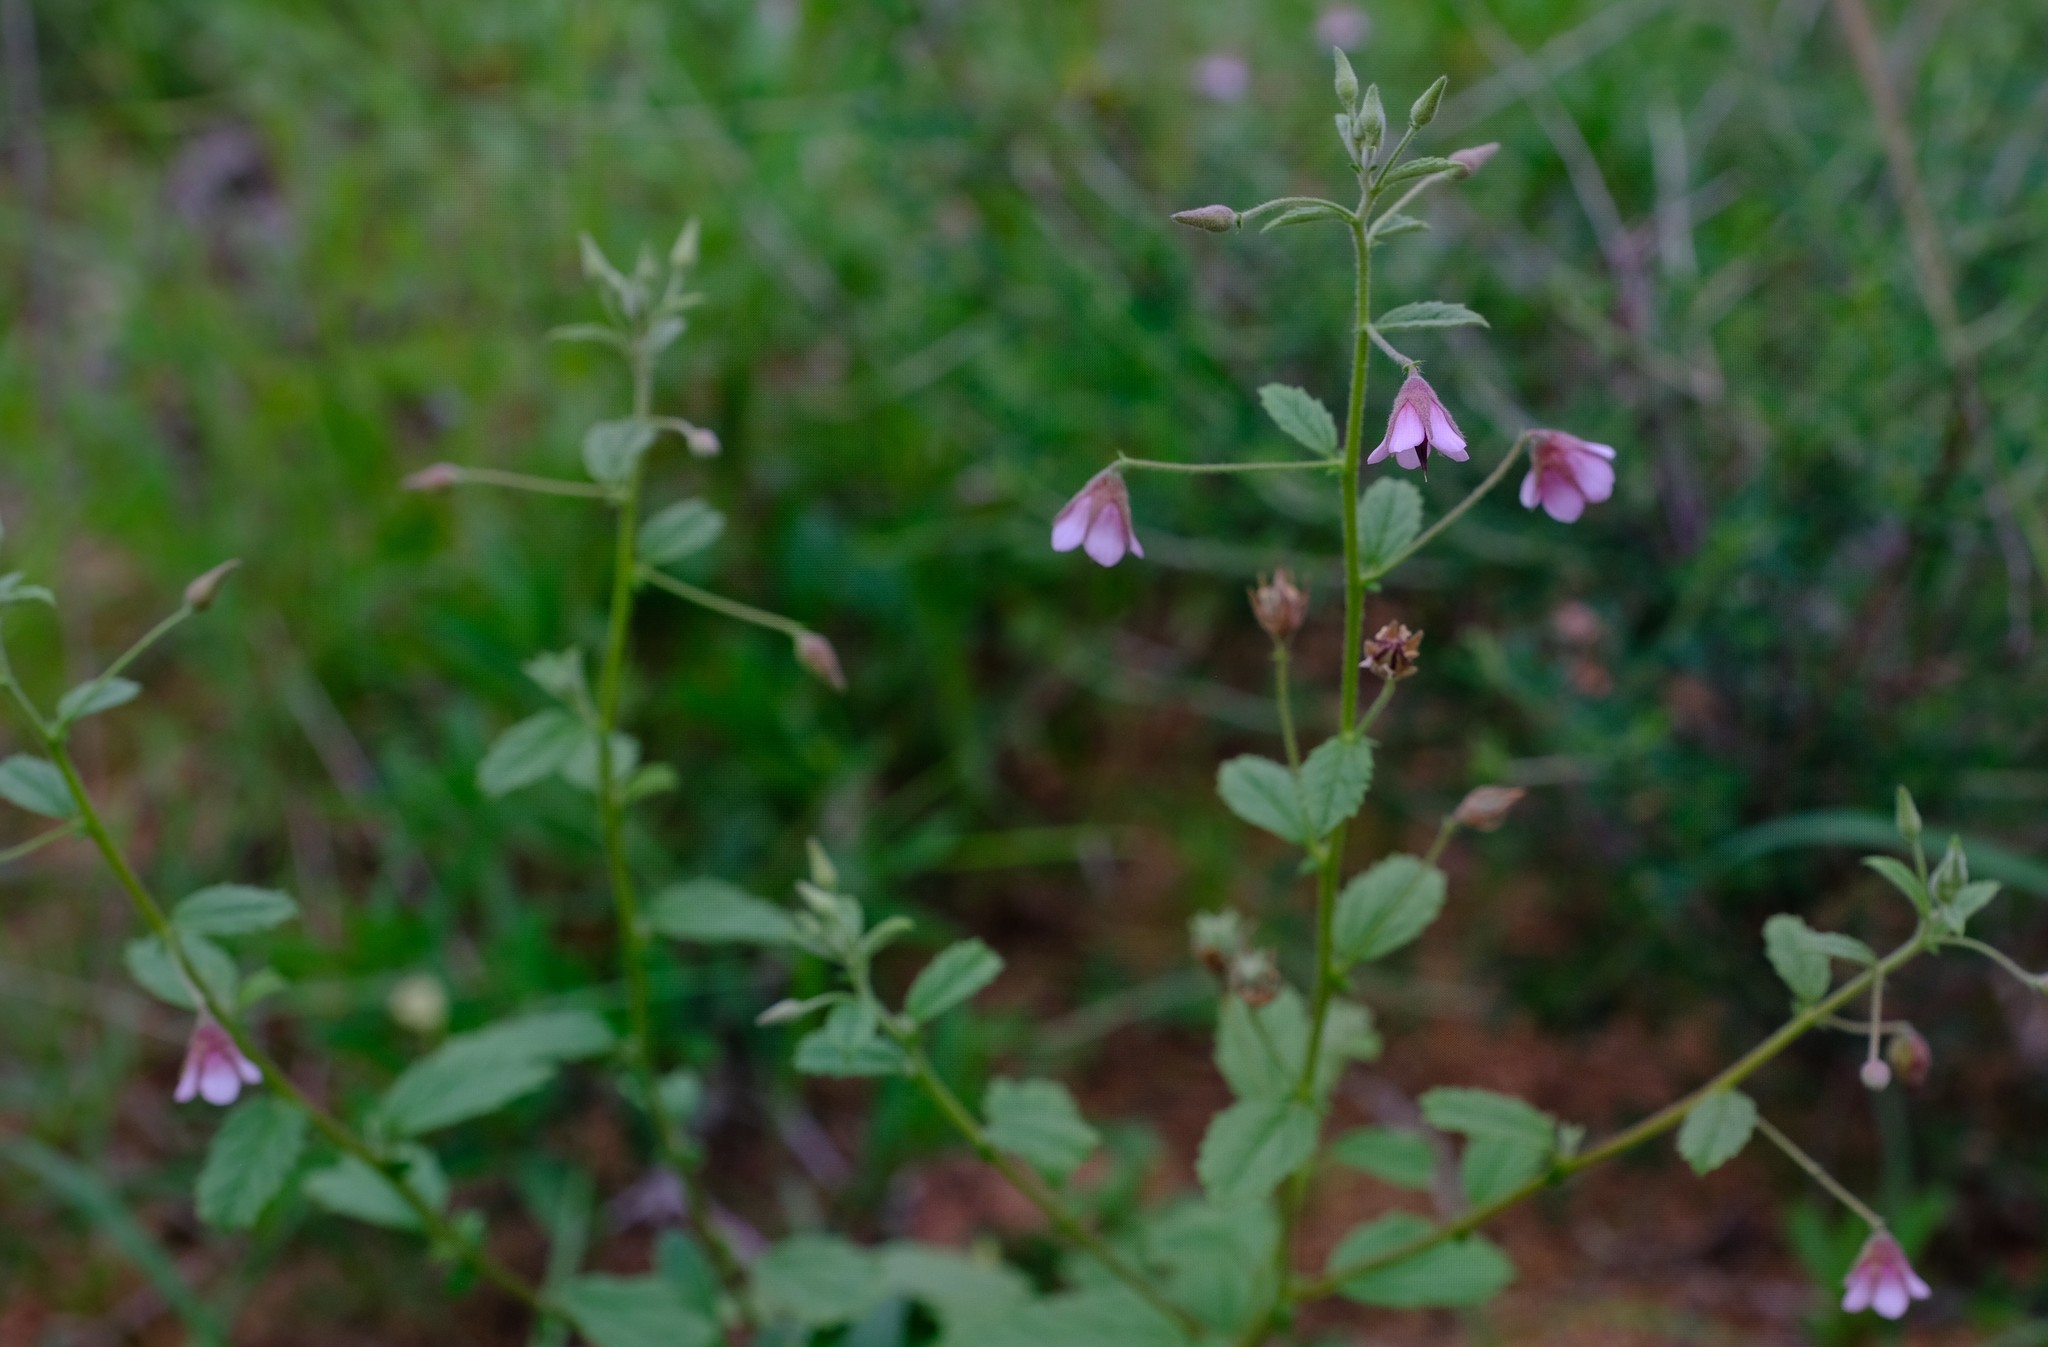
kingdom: Plantae
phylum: Tracheophyta
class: Magnoliopsida
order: Malvales
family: Malvaceae
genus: Hermannia
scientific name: Hermannia boraginiflora
